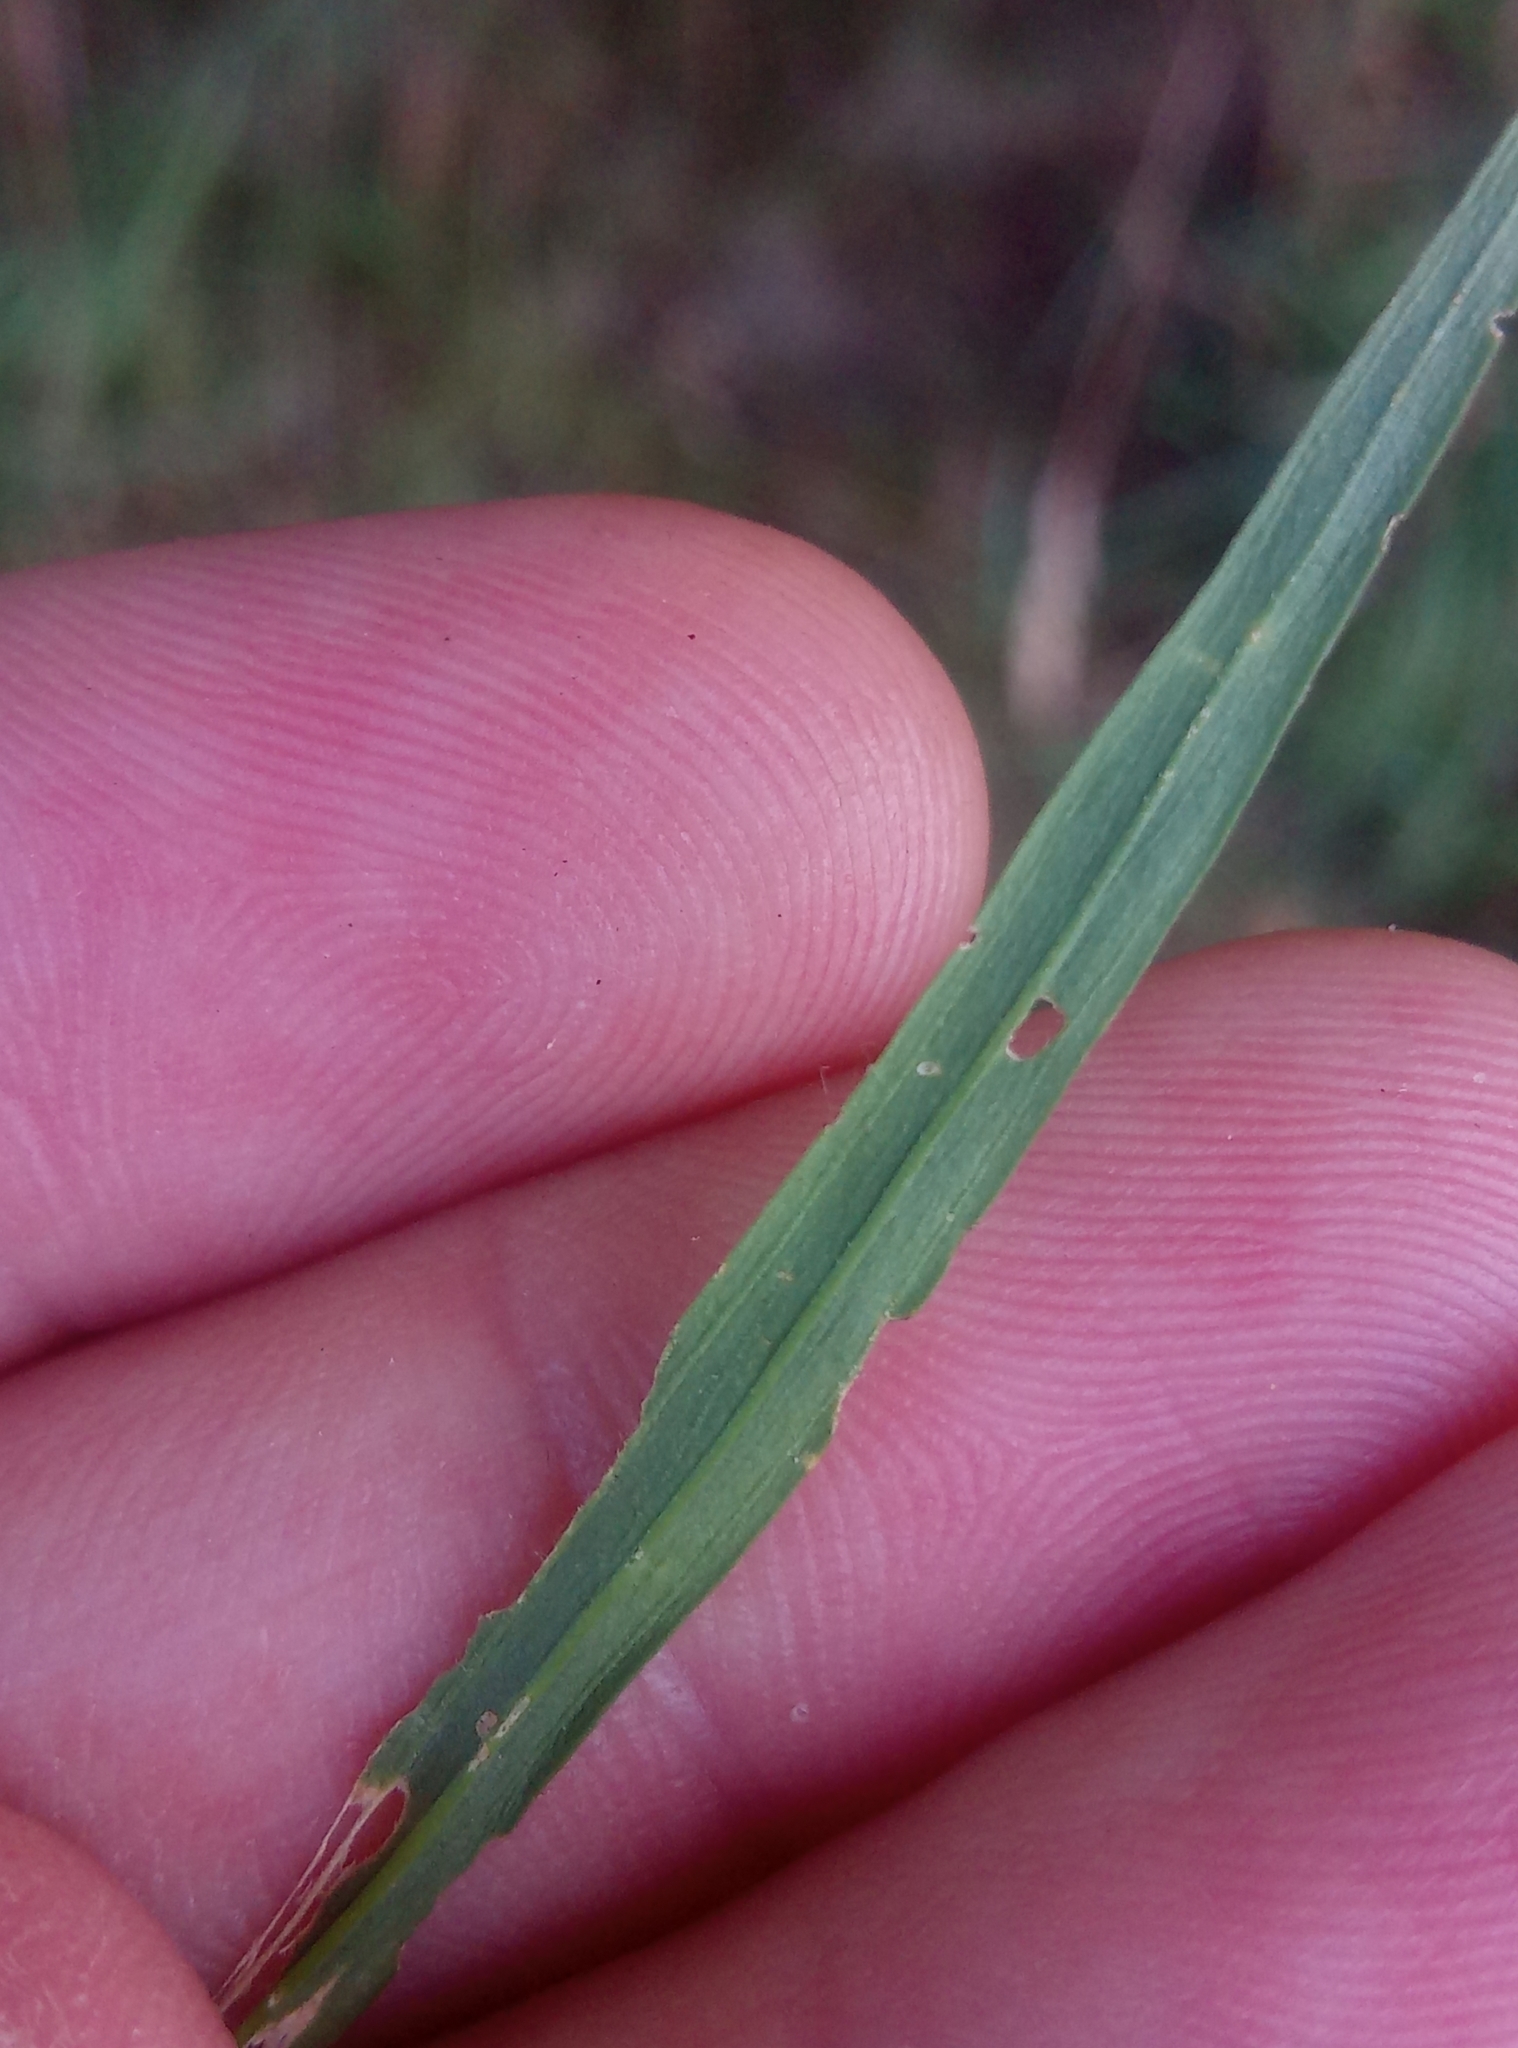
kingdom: Plantae
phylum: Tracheophyta
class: Magnoliopsida
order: Caryophyllales
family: Caryophyllaceae
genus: Dianthus
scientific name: Dianthus armeria
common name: Deptford pink
